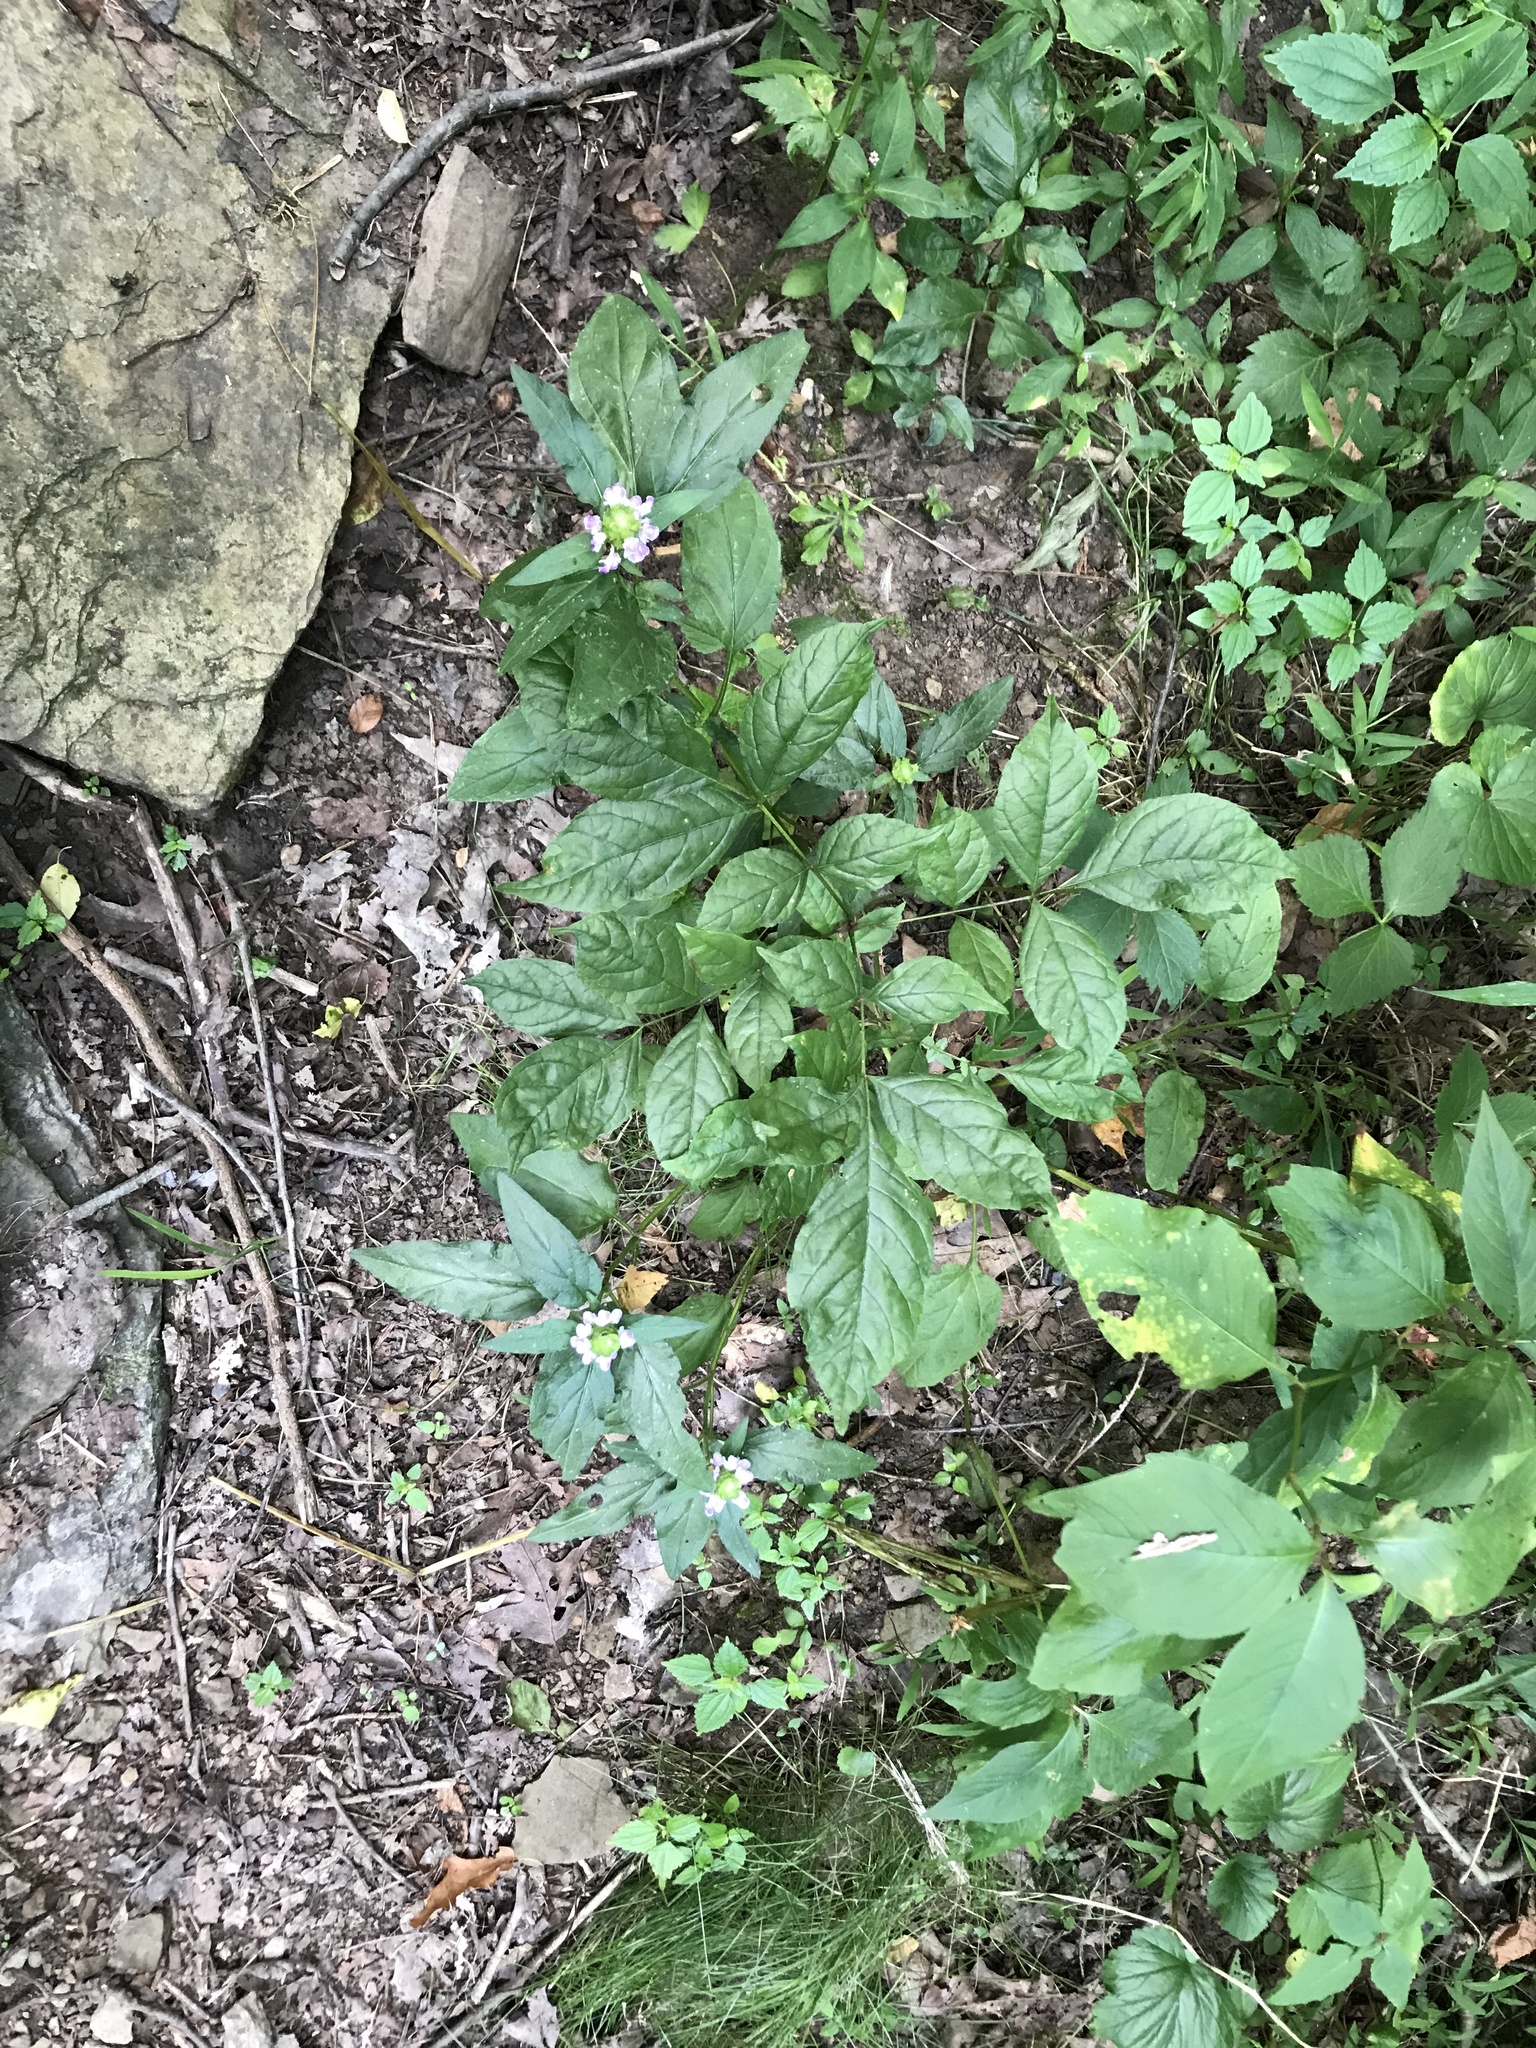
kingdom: Plantae
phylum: Tracheophyta
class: Magnoliopsida
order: Lamiales
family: Lamiaceae
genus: Prunella
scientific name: Prunella vulgaris
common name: Heal-all
